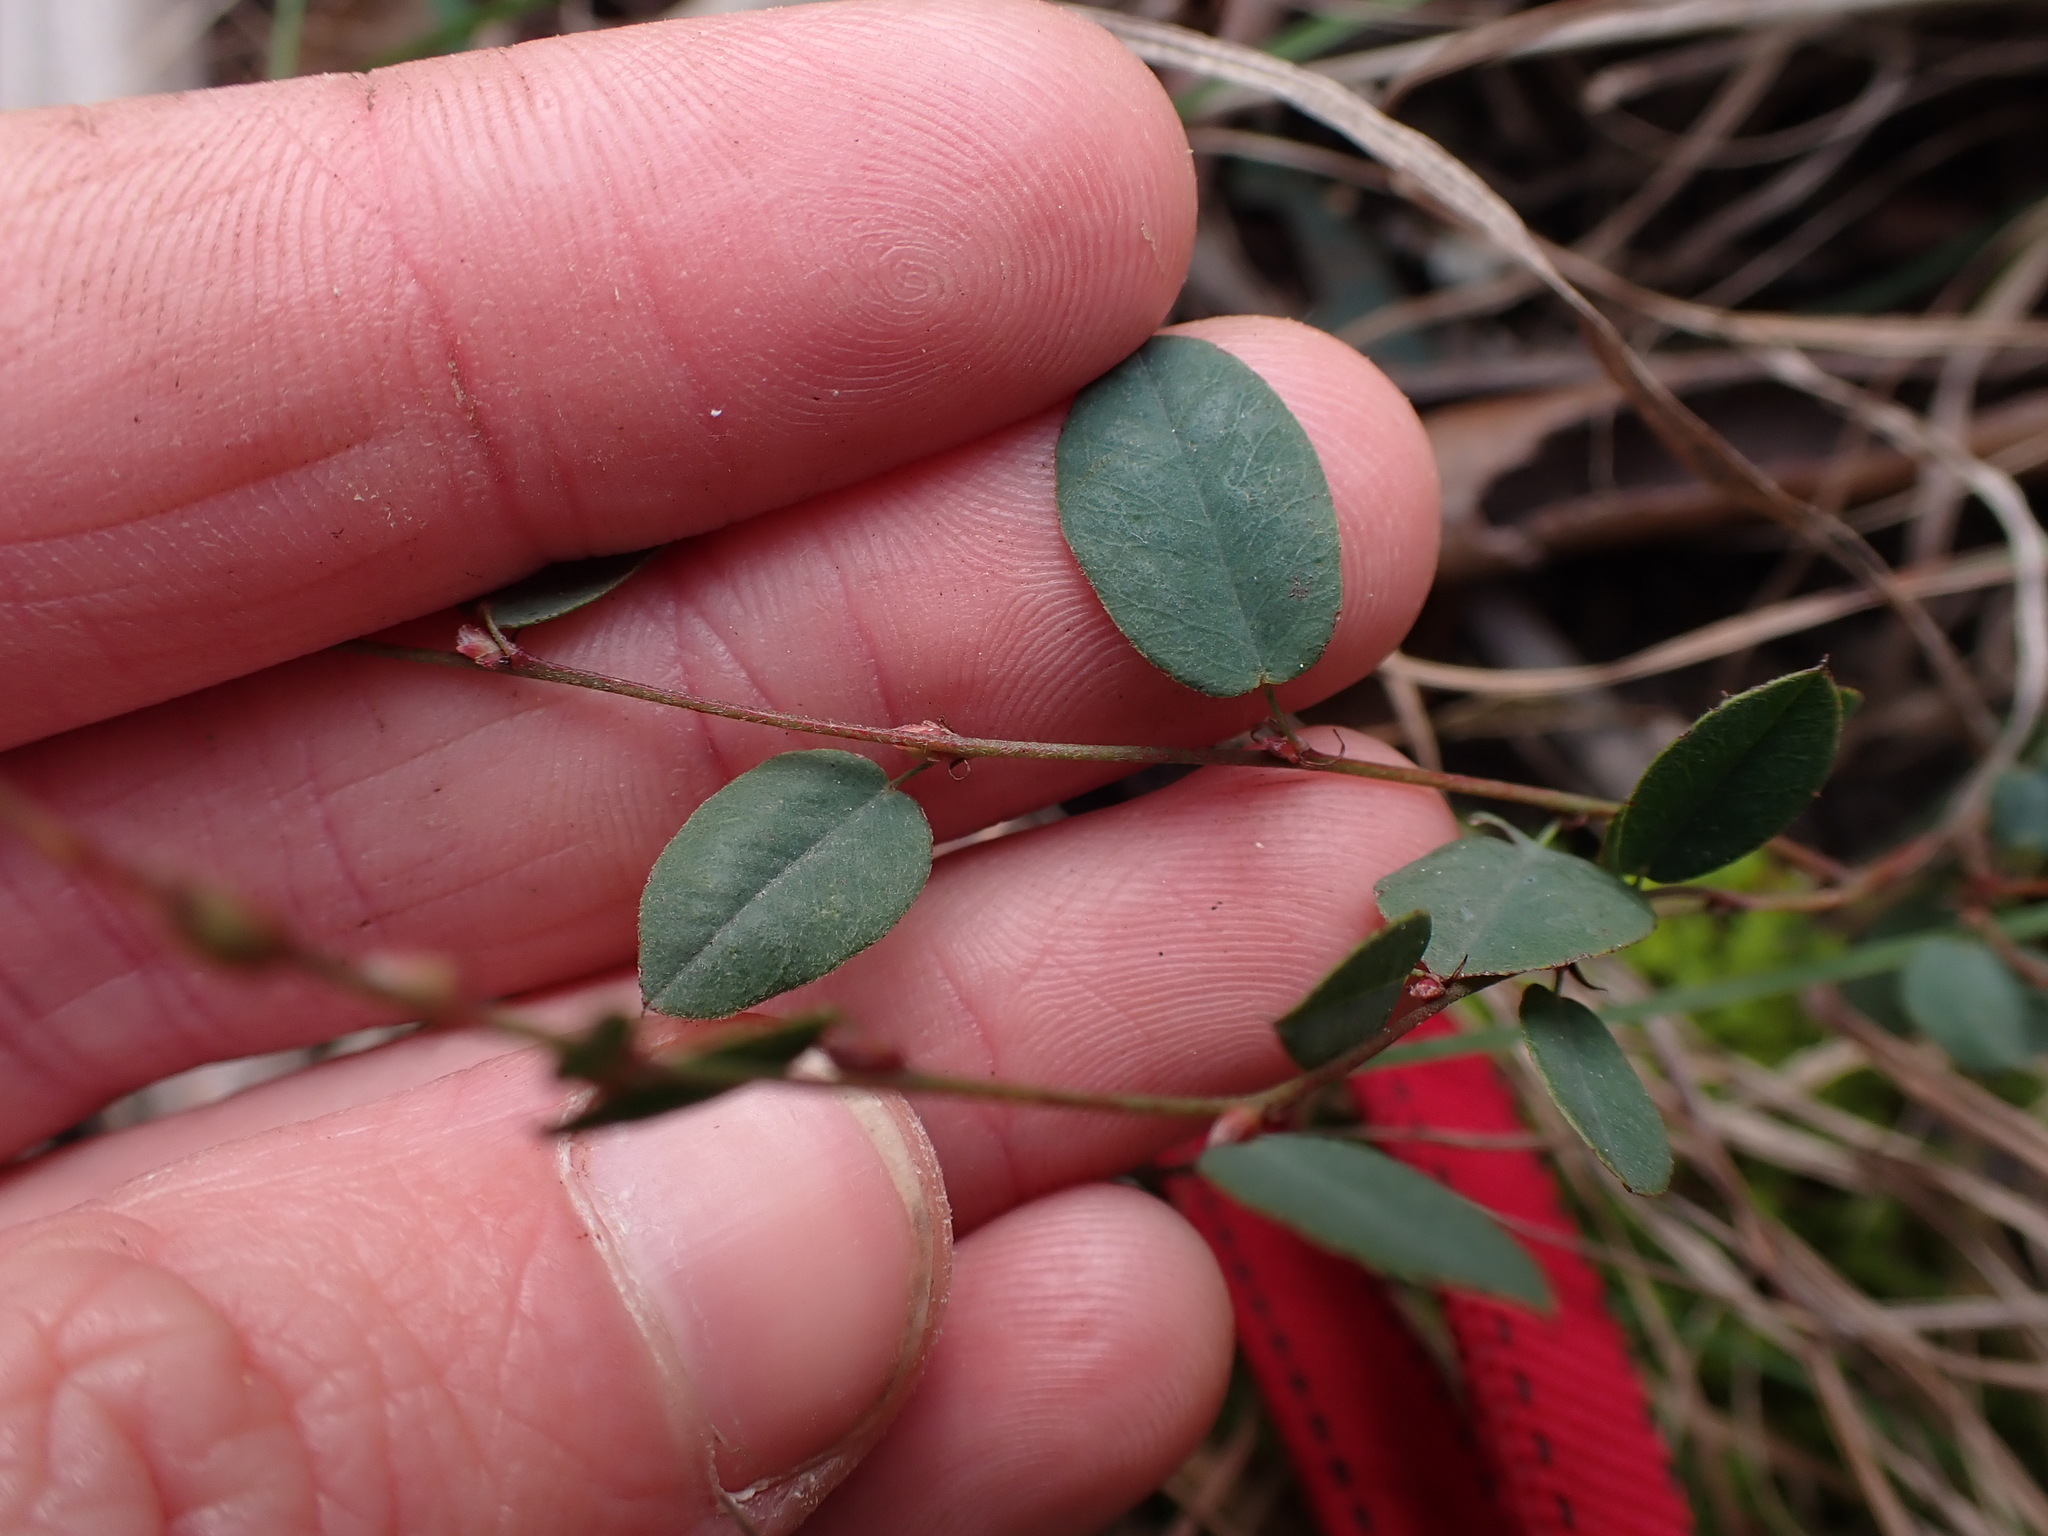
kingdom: Plantae
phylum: Tracheophyta
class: Magnoliopsida
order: Fabales
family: Fabaceae
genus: Bossiaea
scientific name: Bossiaea prostrata
